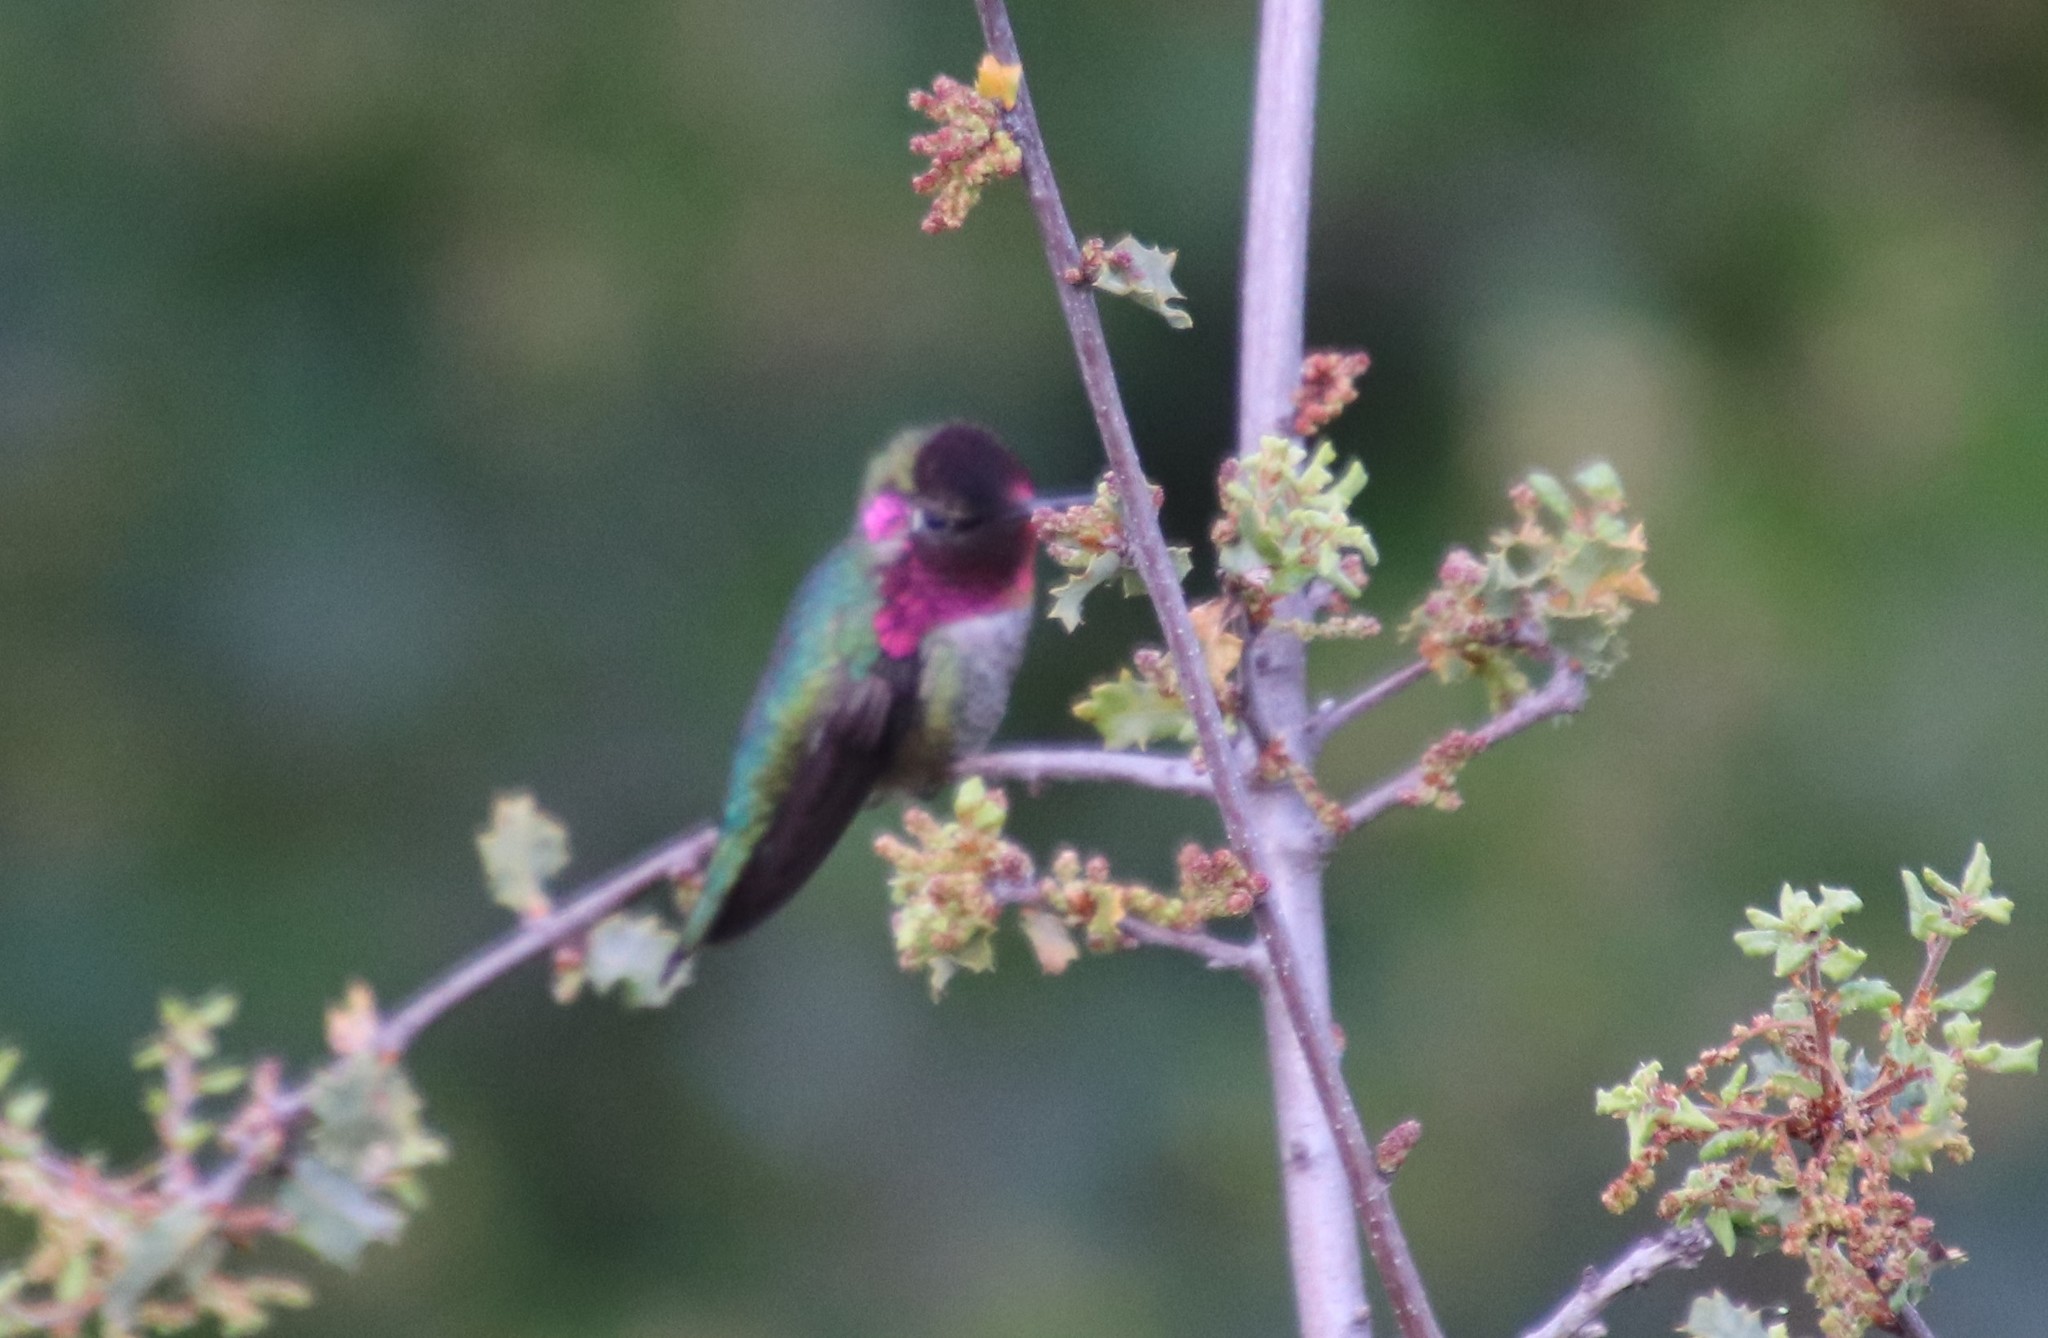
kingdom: Animalia
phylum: Chordata
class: Aves
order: Apodiformes
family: Trochilidae
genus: Calypte
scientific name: Calypte anna
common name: Anna's hummingbird
